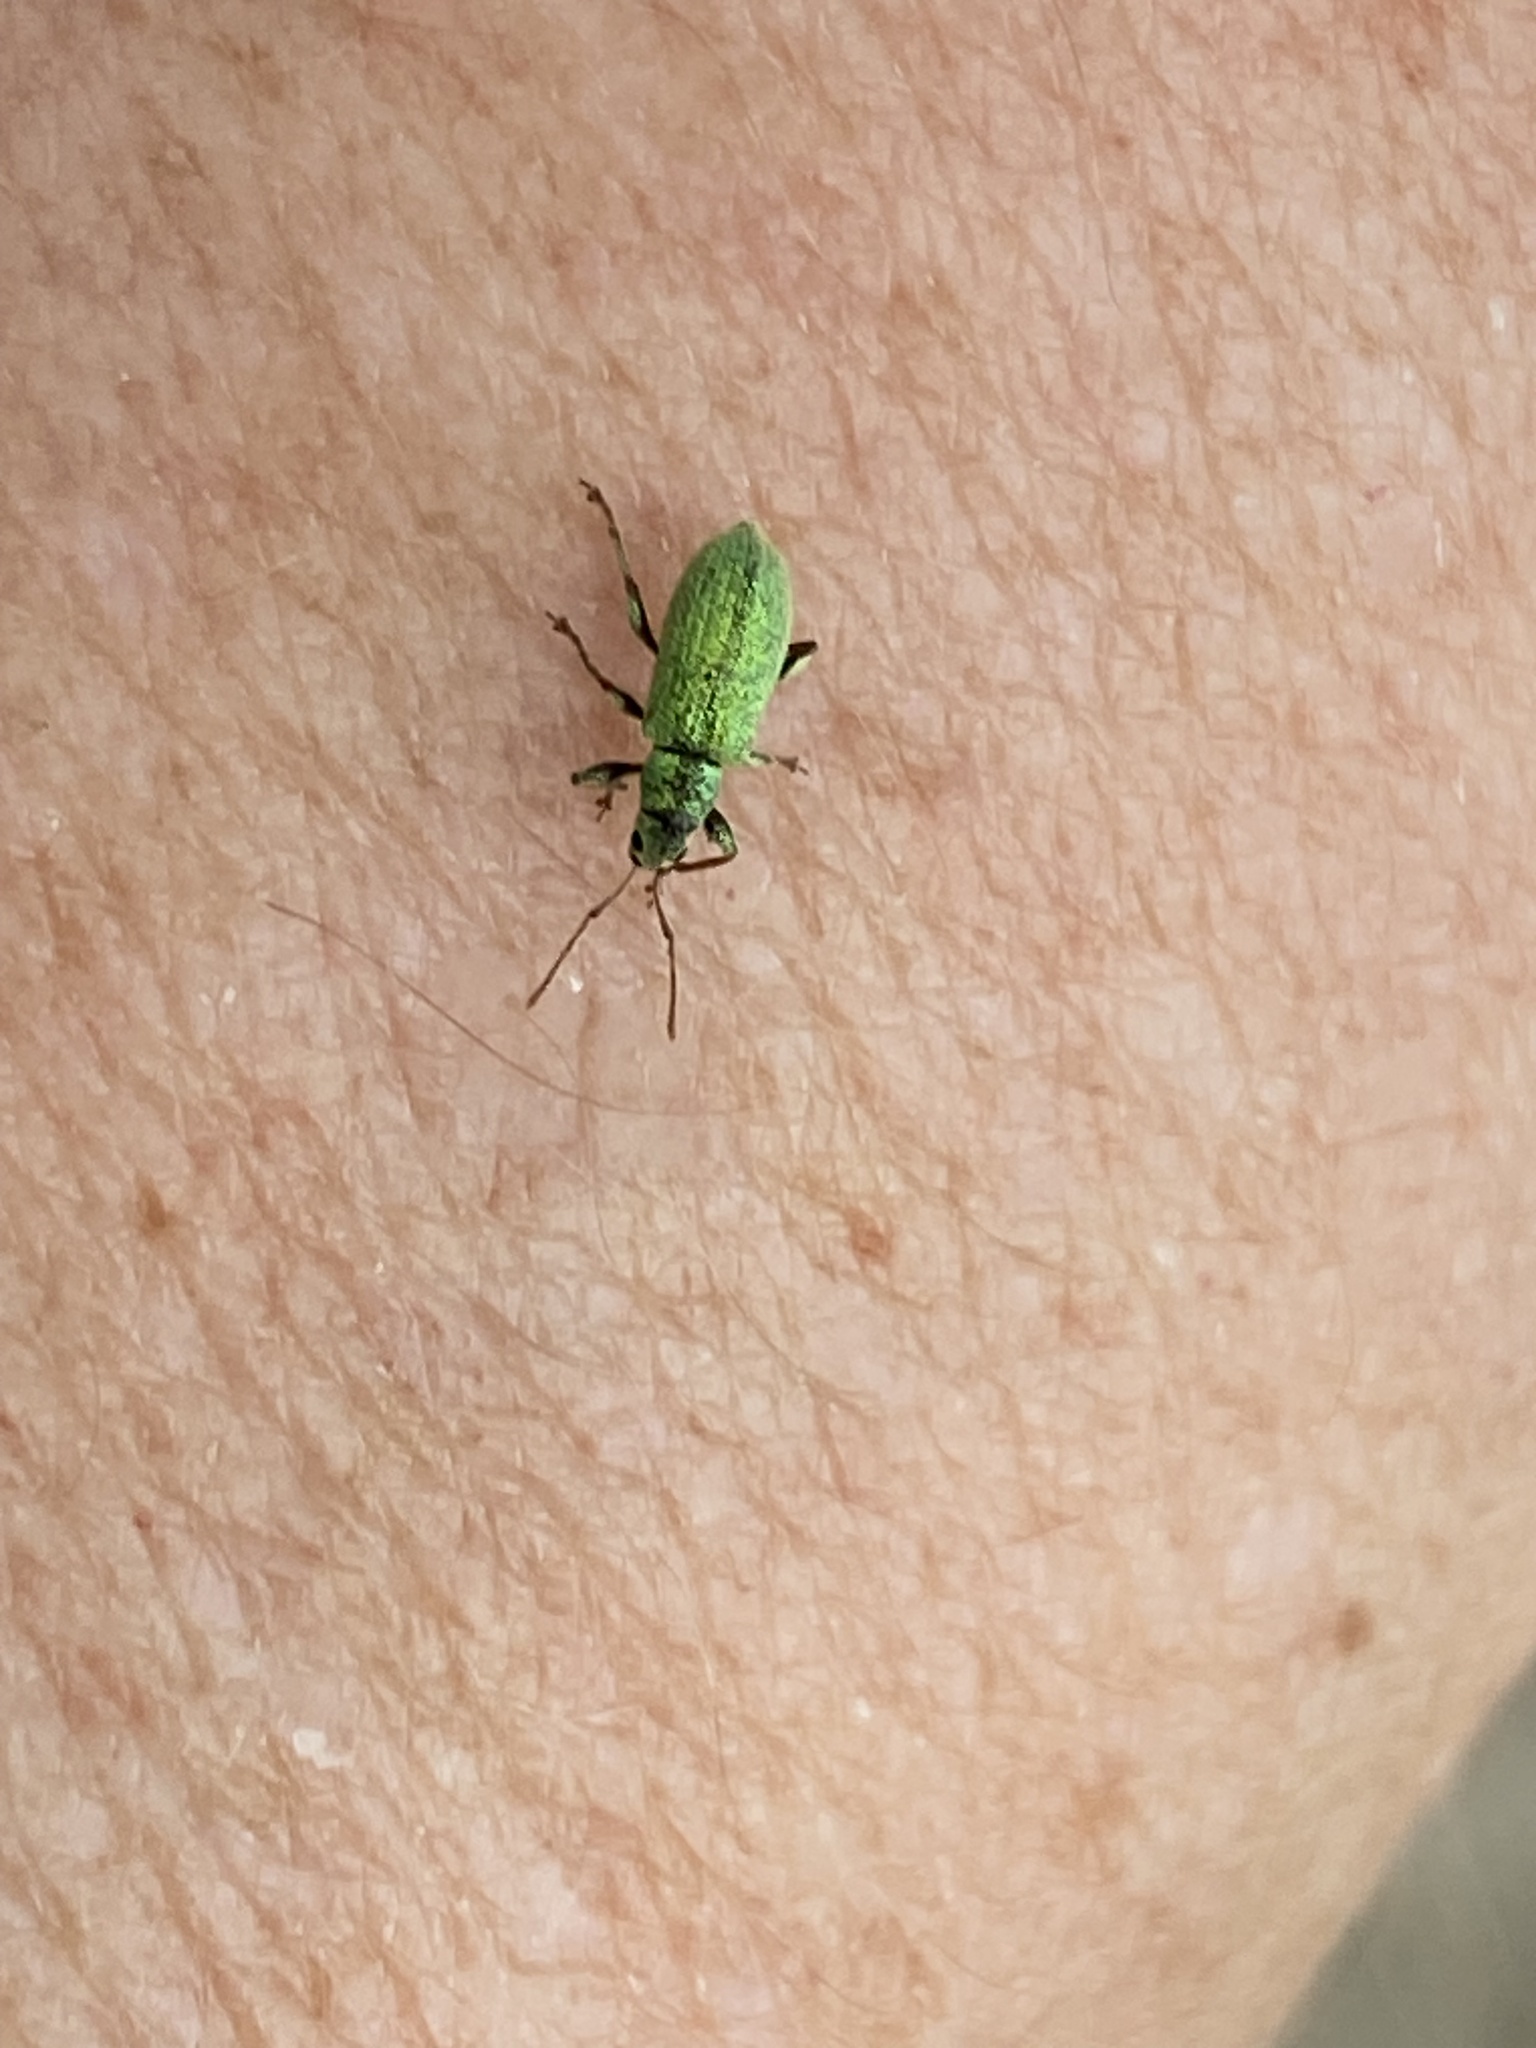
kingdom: Animalia
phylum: Arthropoda
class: Insecta
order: Coleoptera
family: Curculionidae
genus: Phyllobius
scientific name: Phyllobius argentatus
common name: Silver-green leaf weevil
